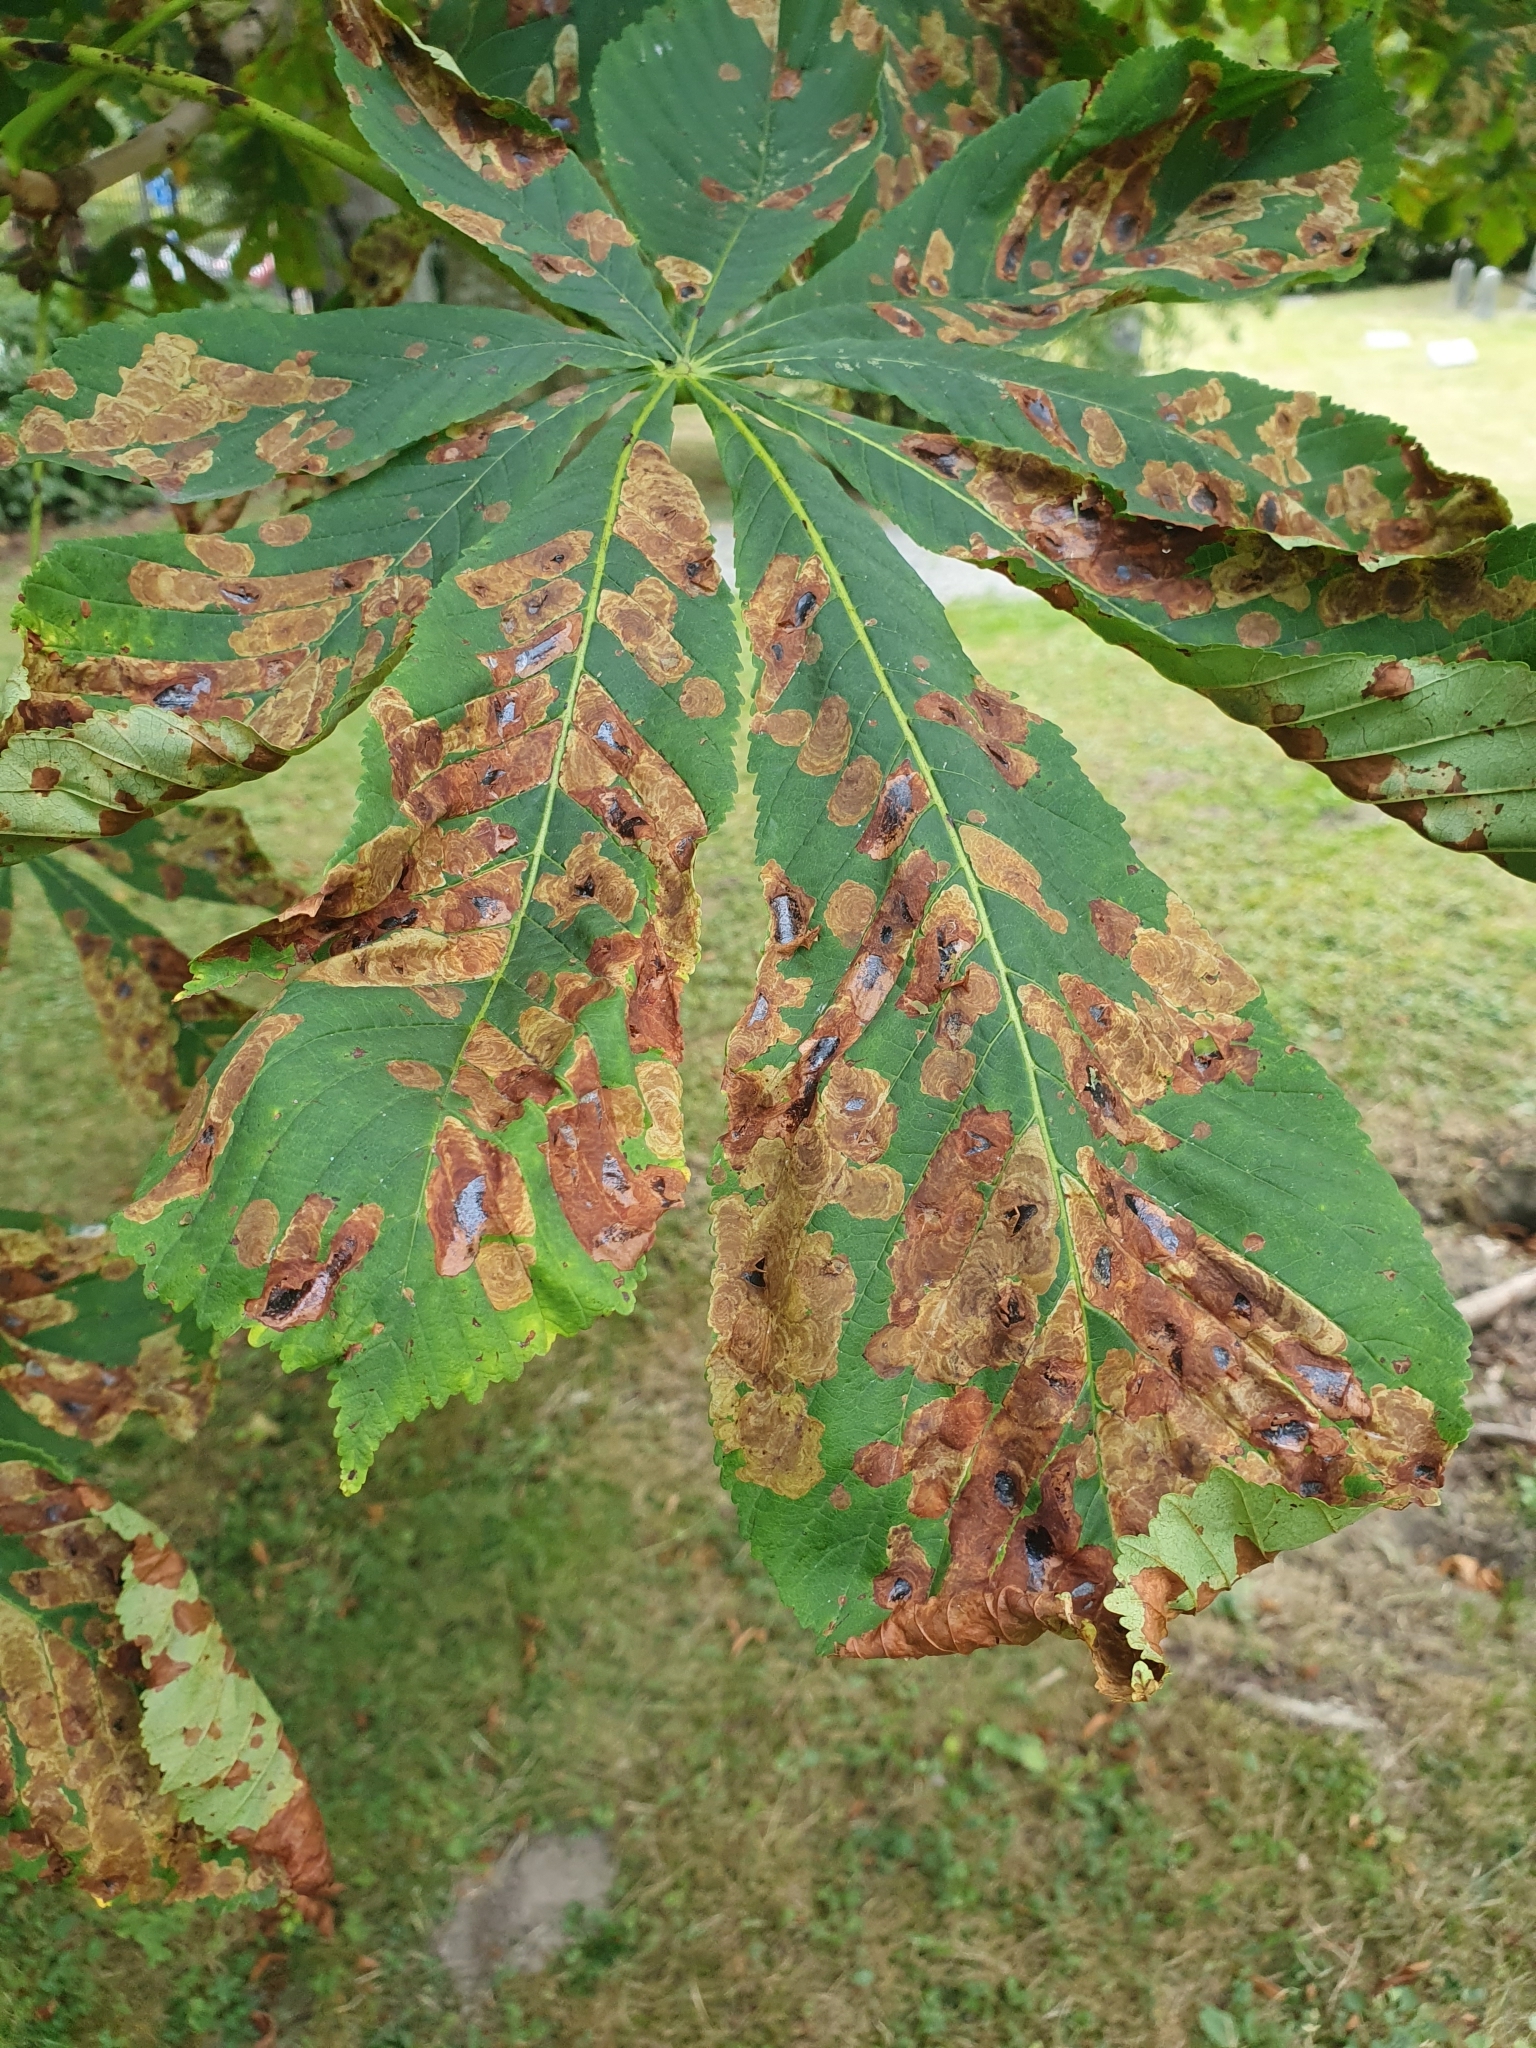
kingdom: Animalia
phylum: Arthropoda
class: Insecta
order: Lepidoptera
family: Gracillariidae
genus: Cameraria
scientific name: Cameraria ohridella
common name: Horse-chestnut leaf-miner
